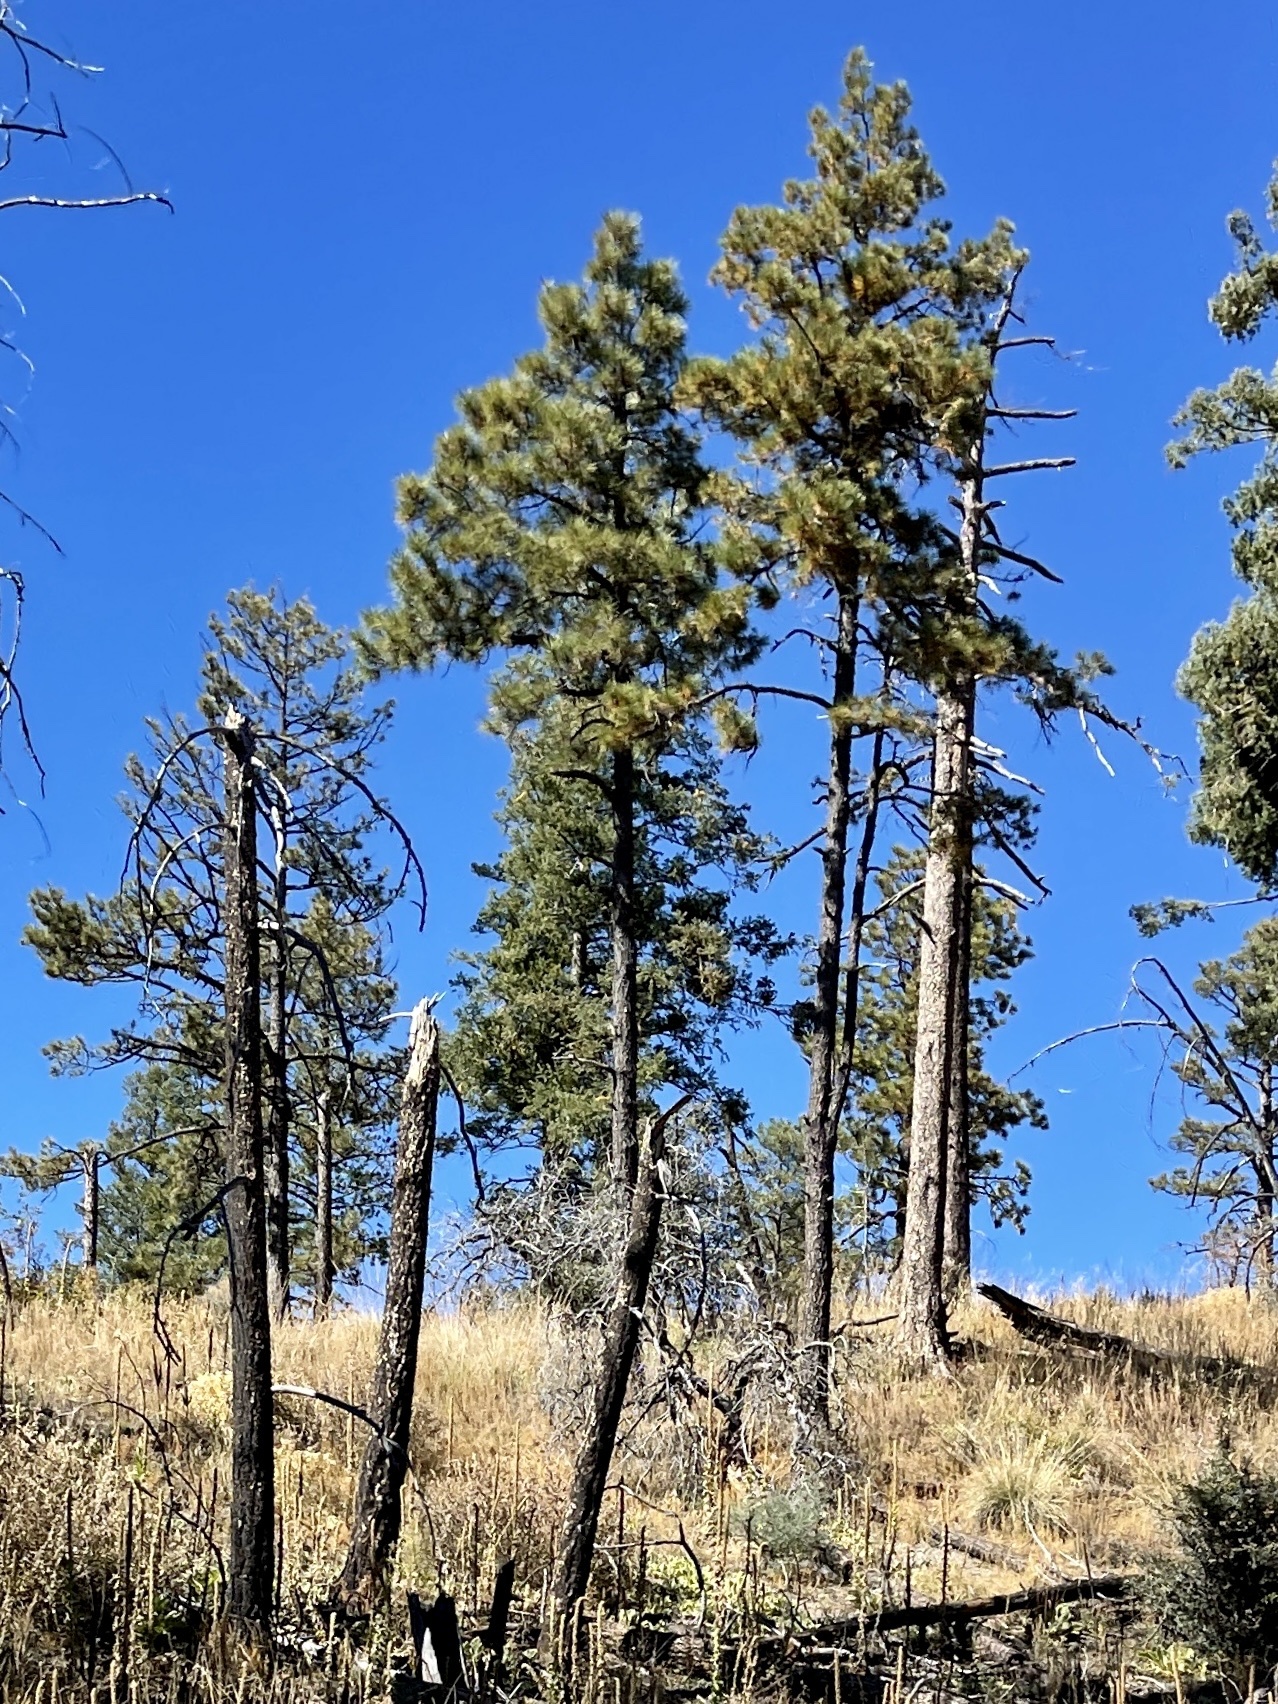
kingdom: Plantae
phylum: Tracheophyta
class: Pinopsida
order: Pinales
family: Pinaceae
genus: Pinus
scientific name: Pinus ponderosa
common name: Western yellow-pine
